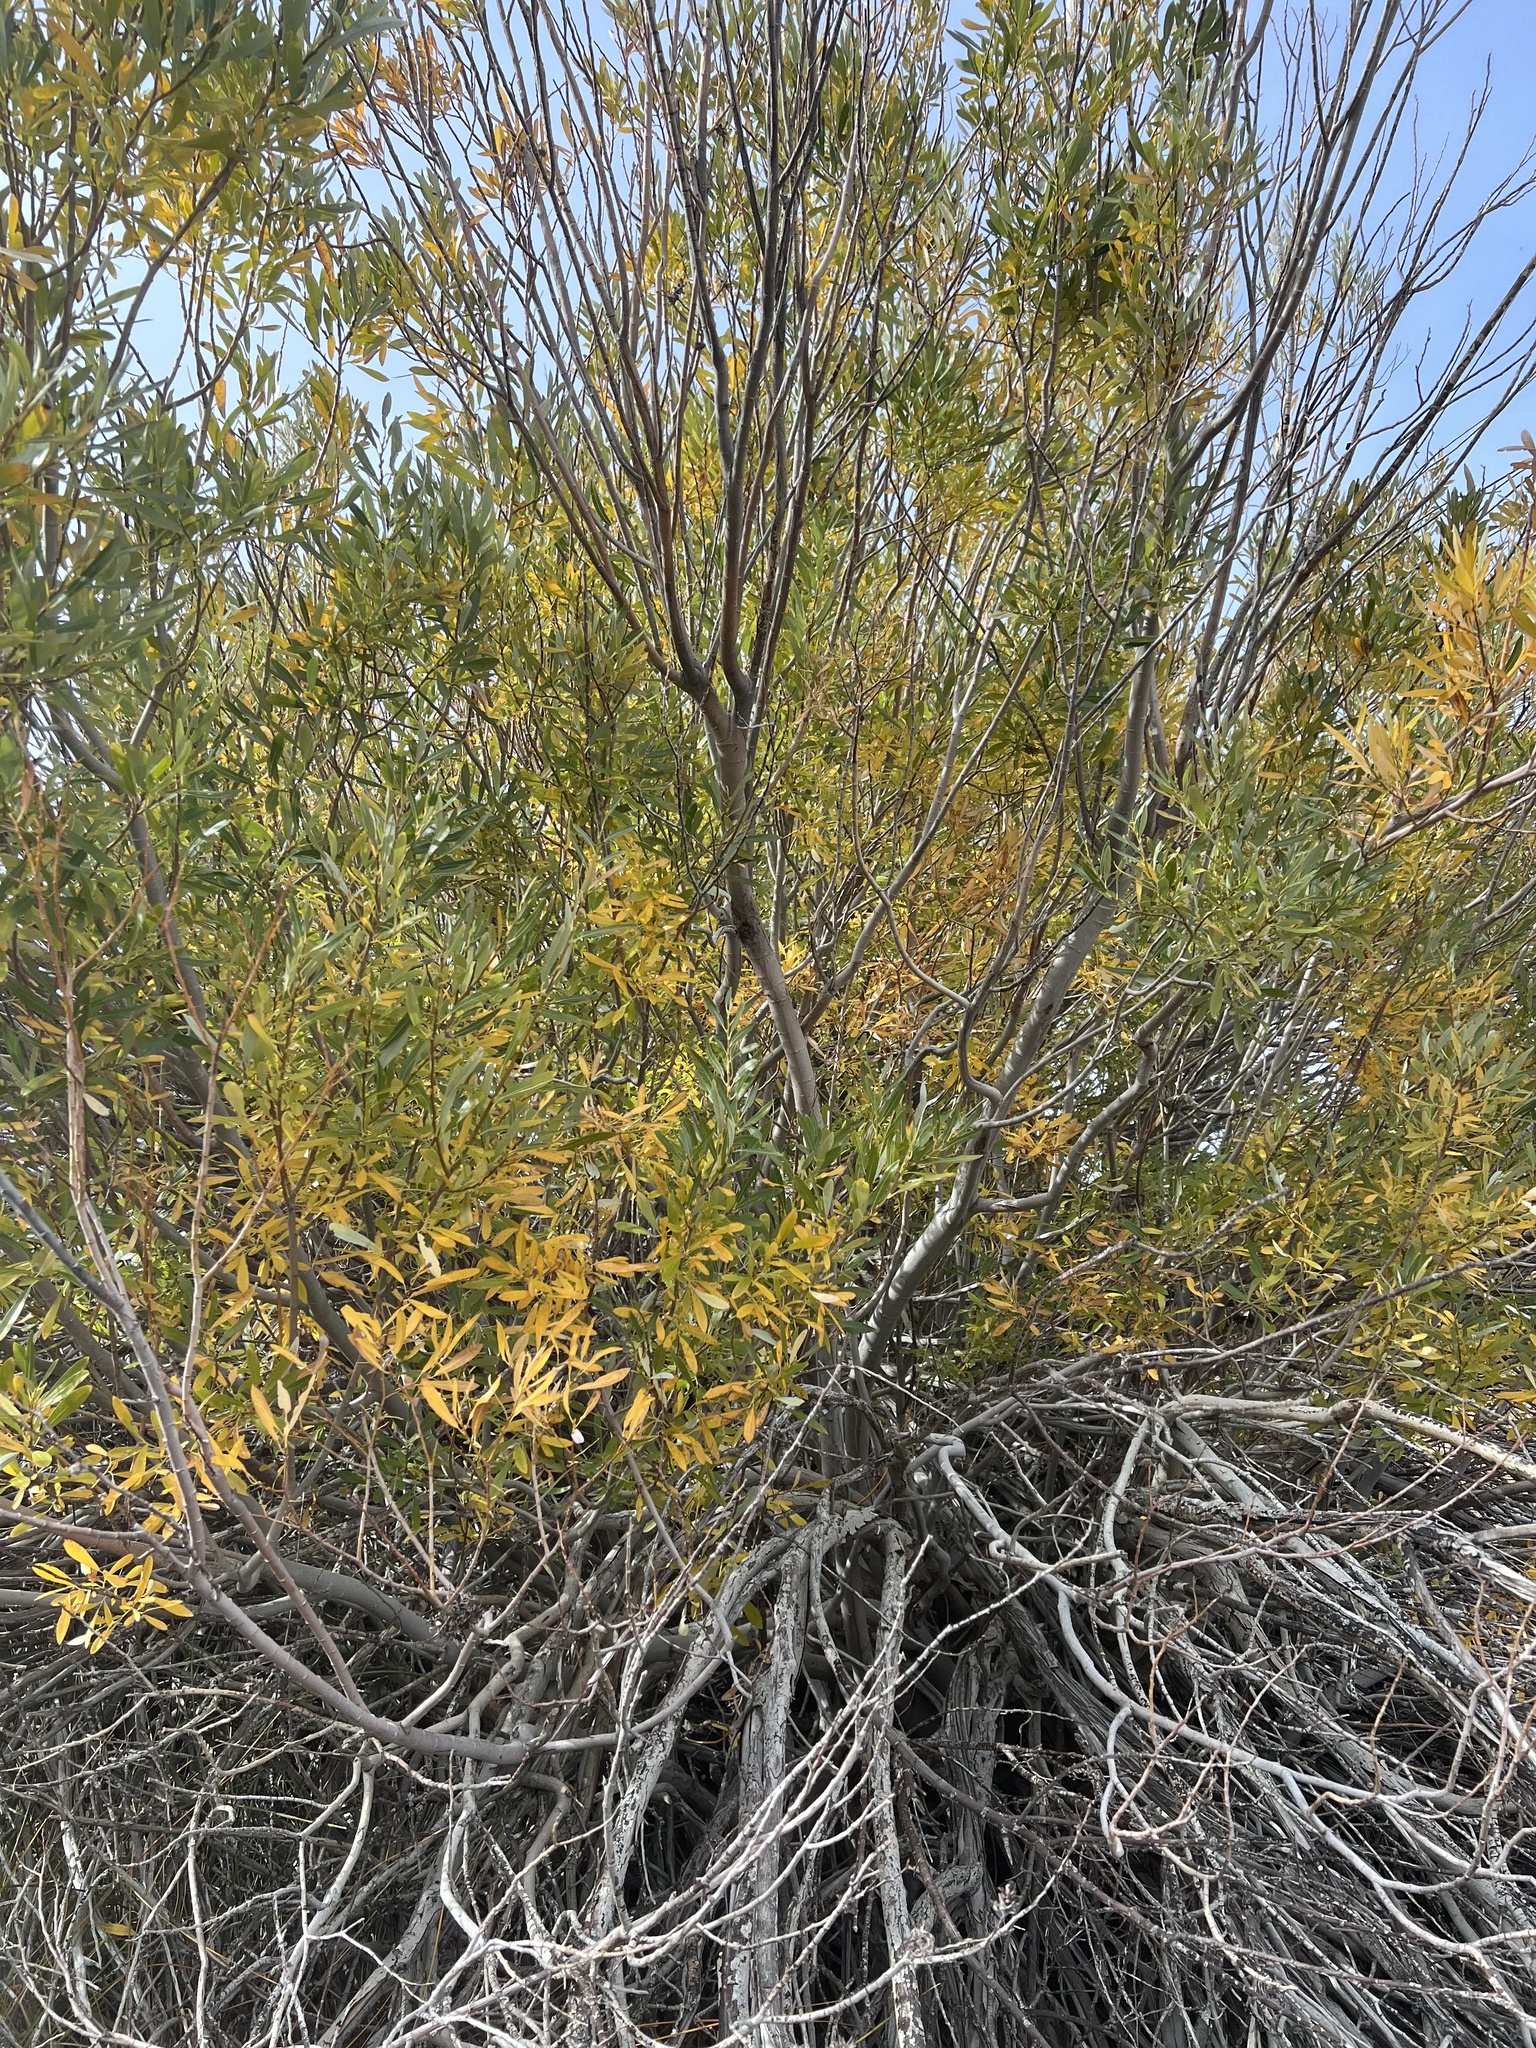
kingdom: Plantae
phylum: Tracheophyta
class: Magnoliopsida
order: Malpighiales
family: Salicaceae
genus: Salix
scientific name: Salix lasiolepis
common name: Arroyo willow
